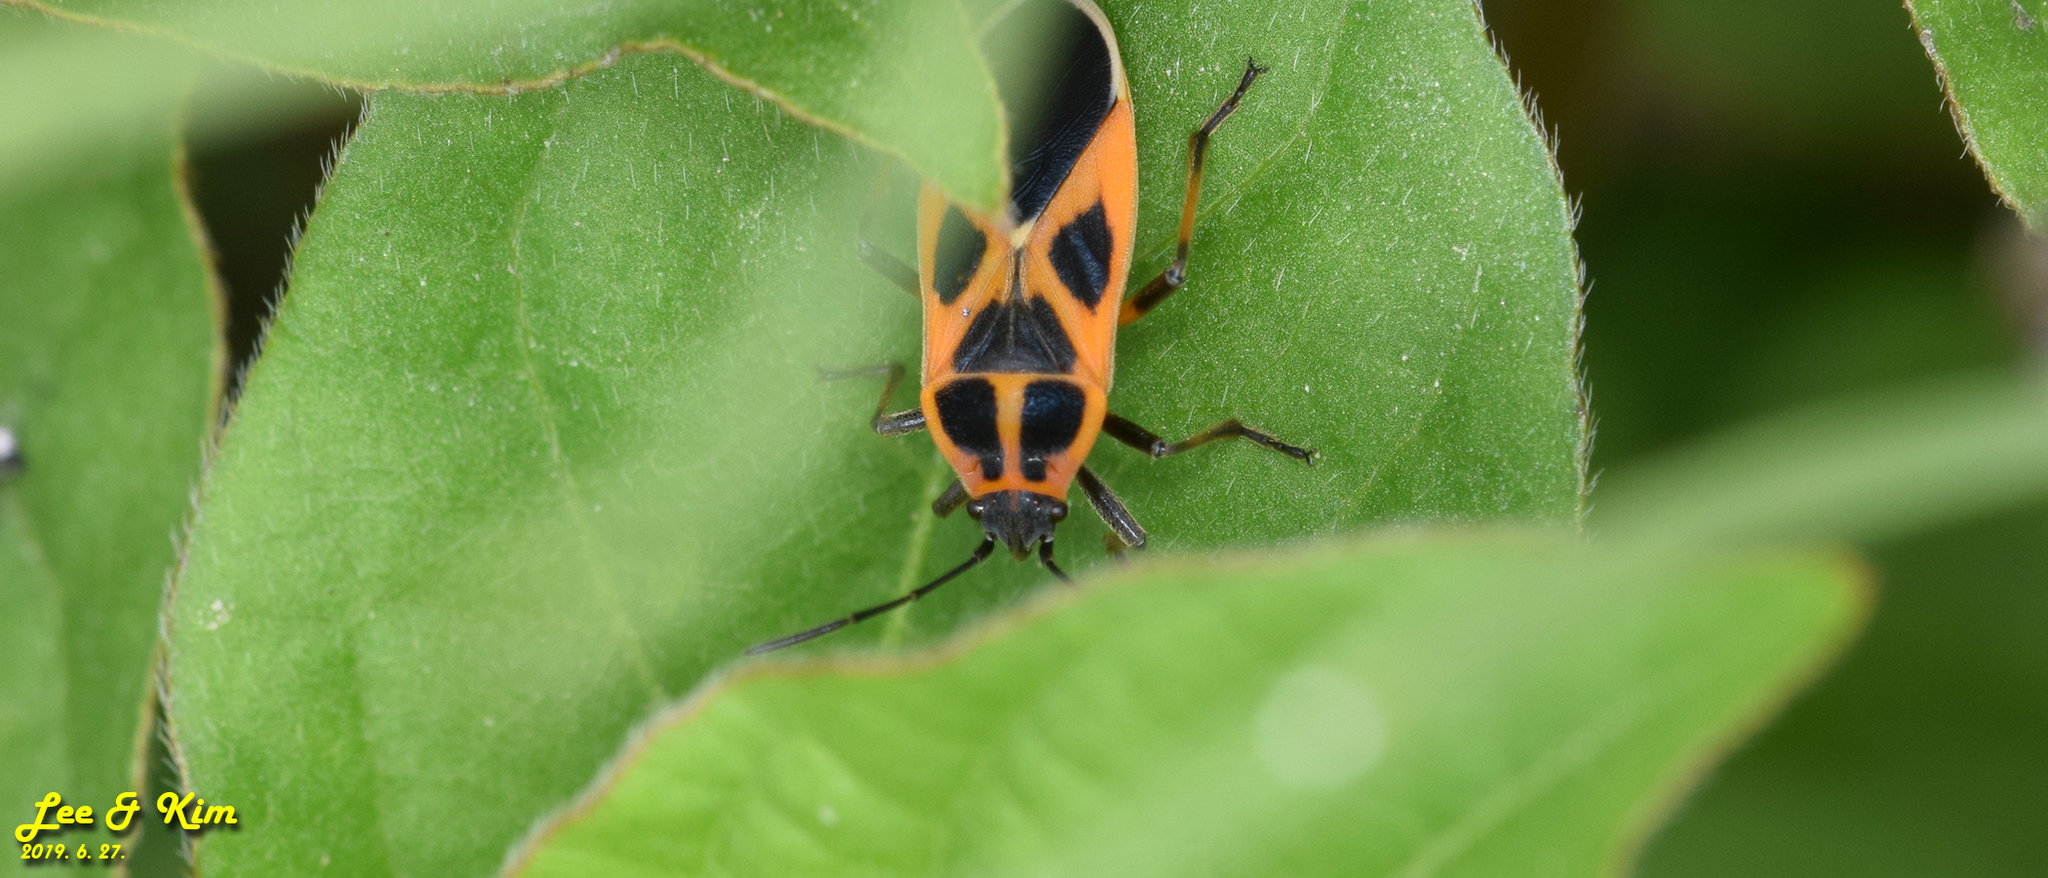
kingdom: Animalia
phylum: Arthropoda
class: Insecta
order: Hemiptera
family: Lygaeidae
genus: Tropidothorax
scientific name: Tropidothorax cruciger
